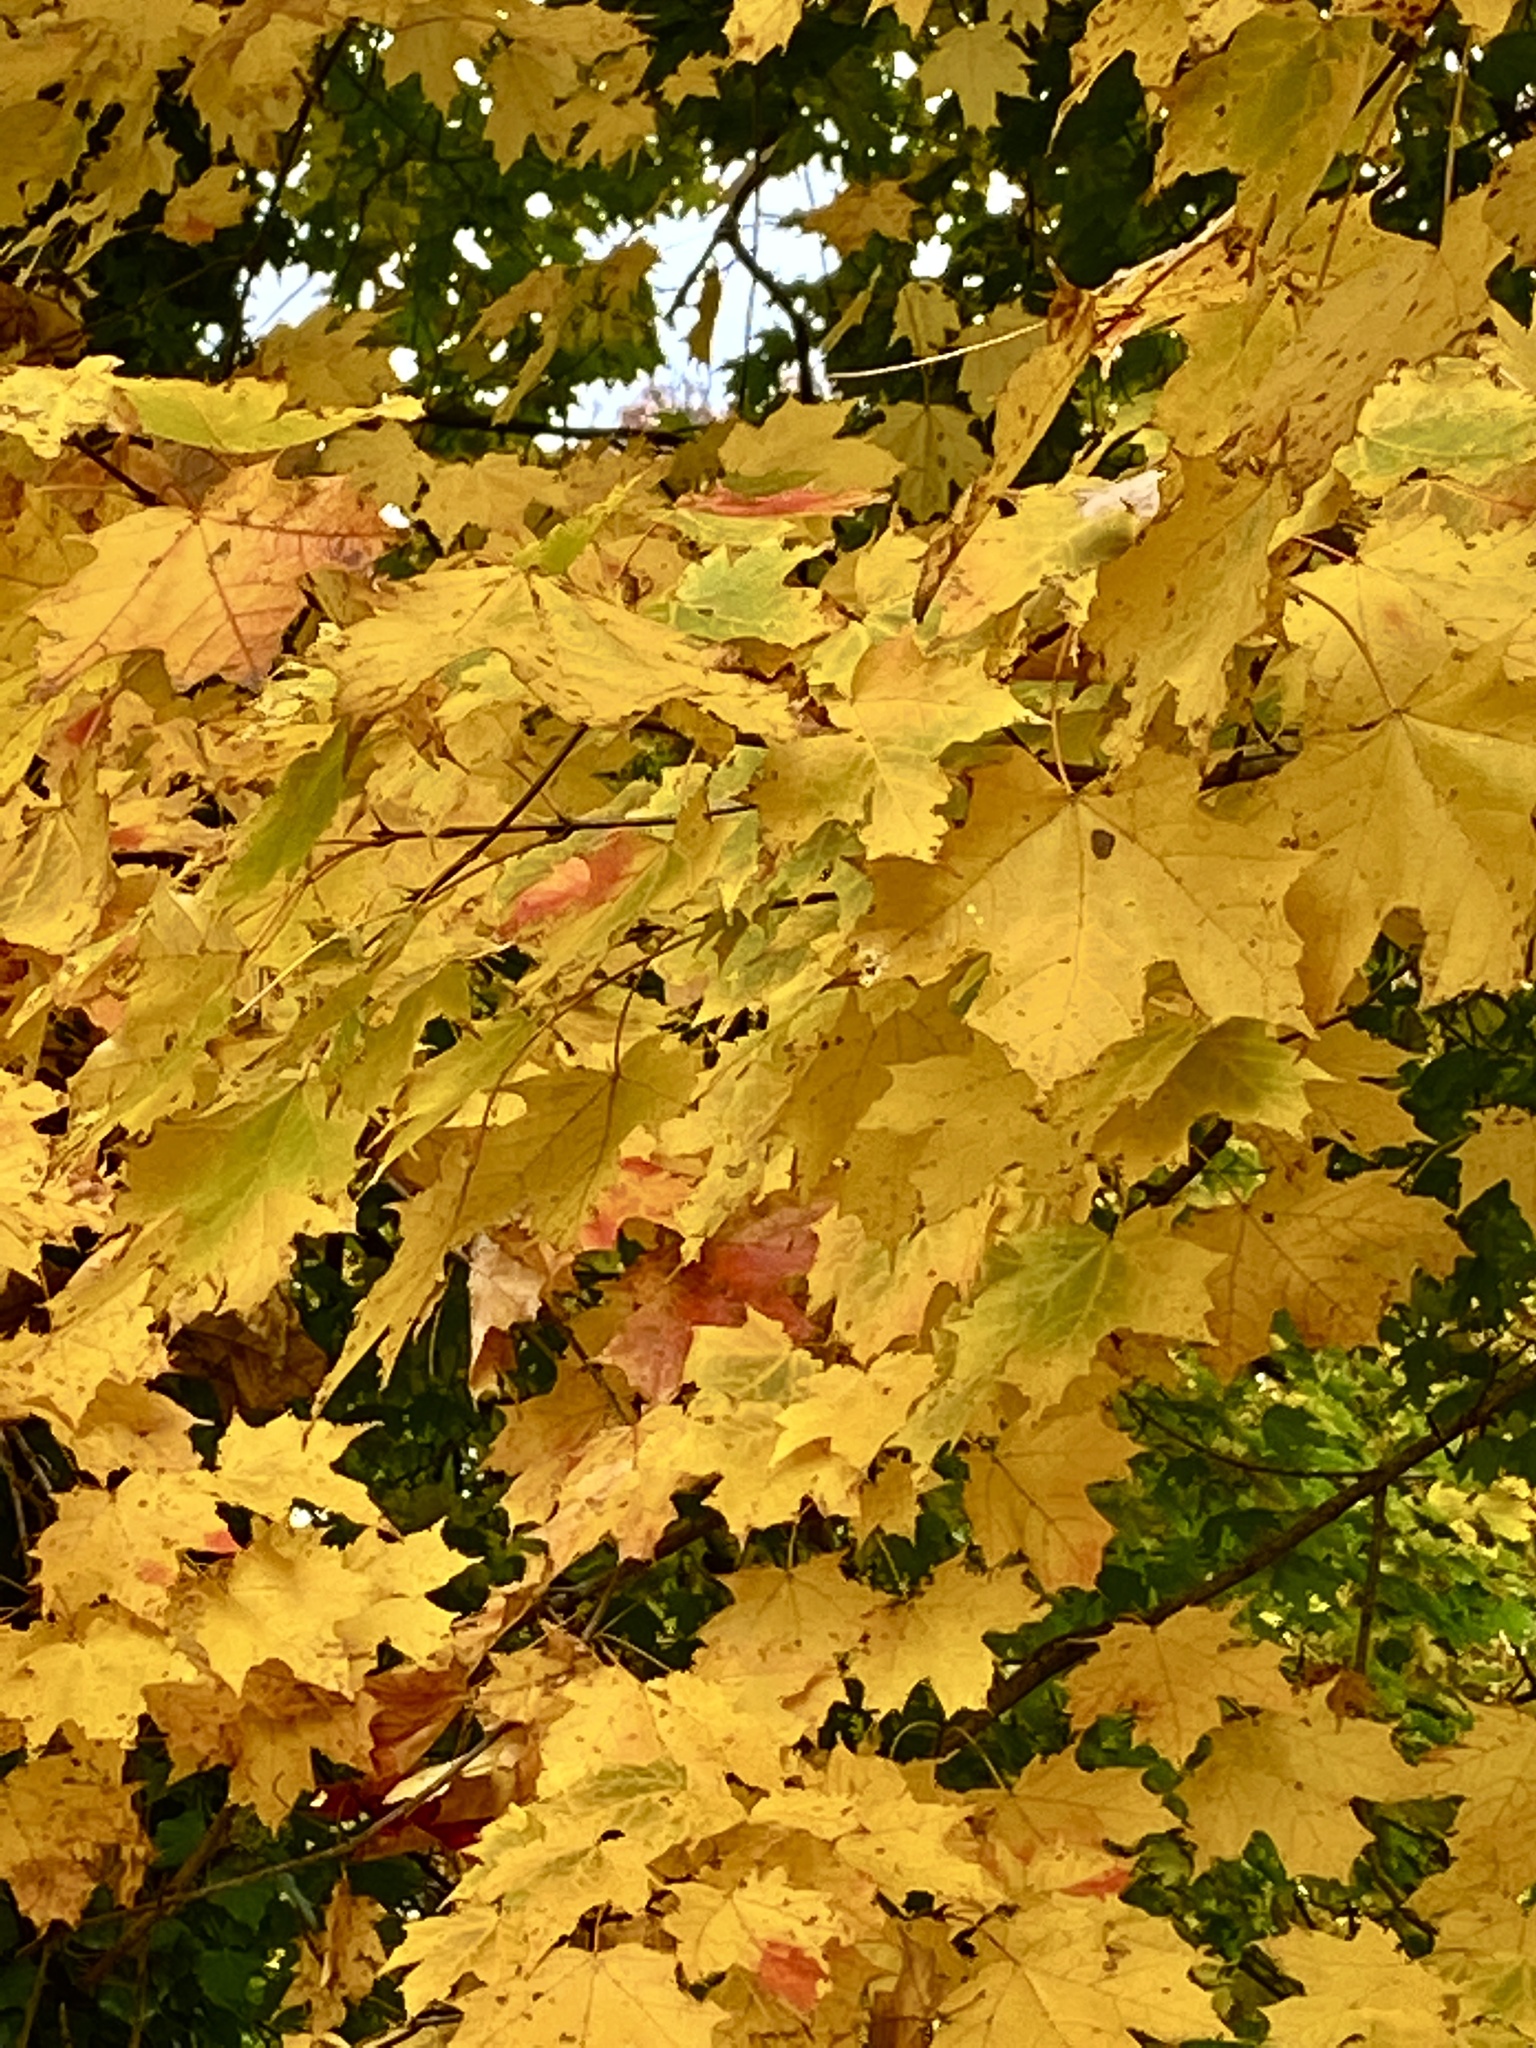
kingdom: Plantae
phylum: Tracheophyta
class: Magnoliopsida
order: Sapindales
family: Sapindaceae
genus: Acer
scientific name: Acer saccharum
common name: Sugar maple
